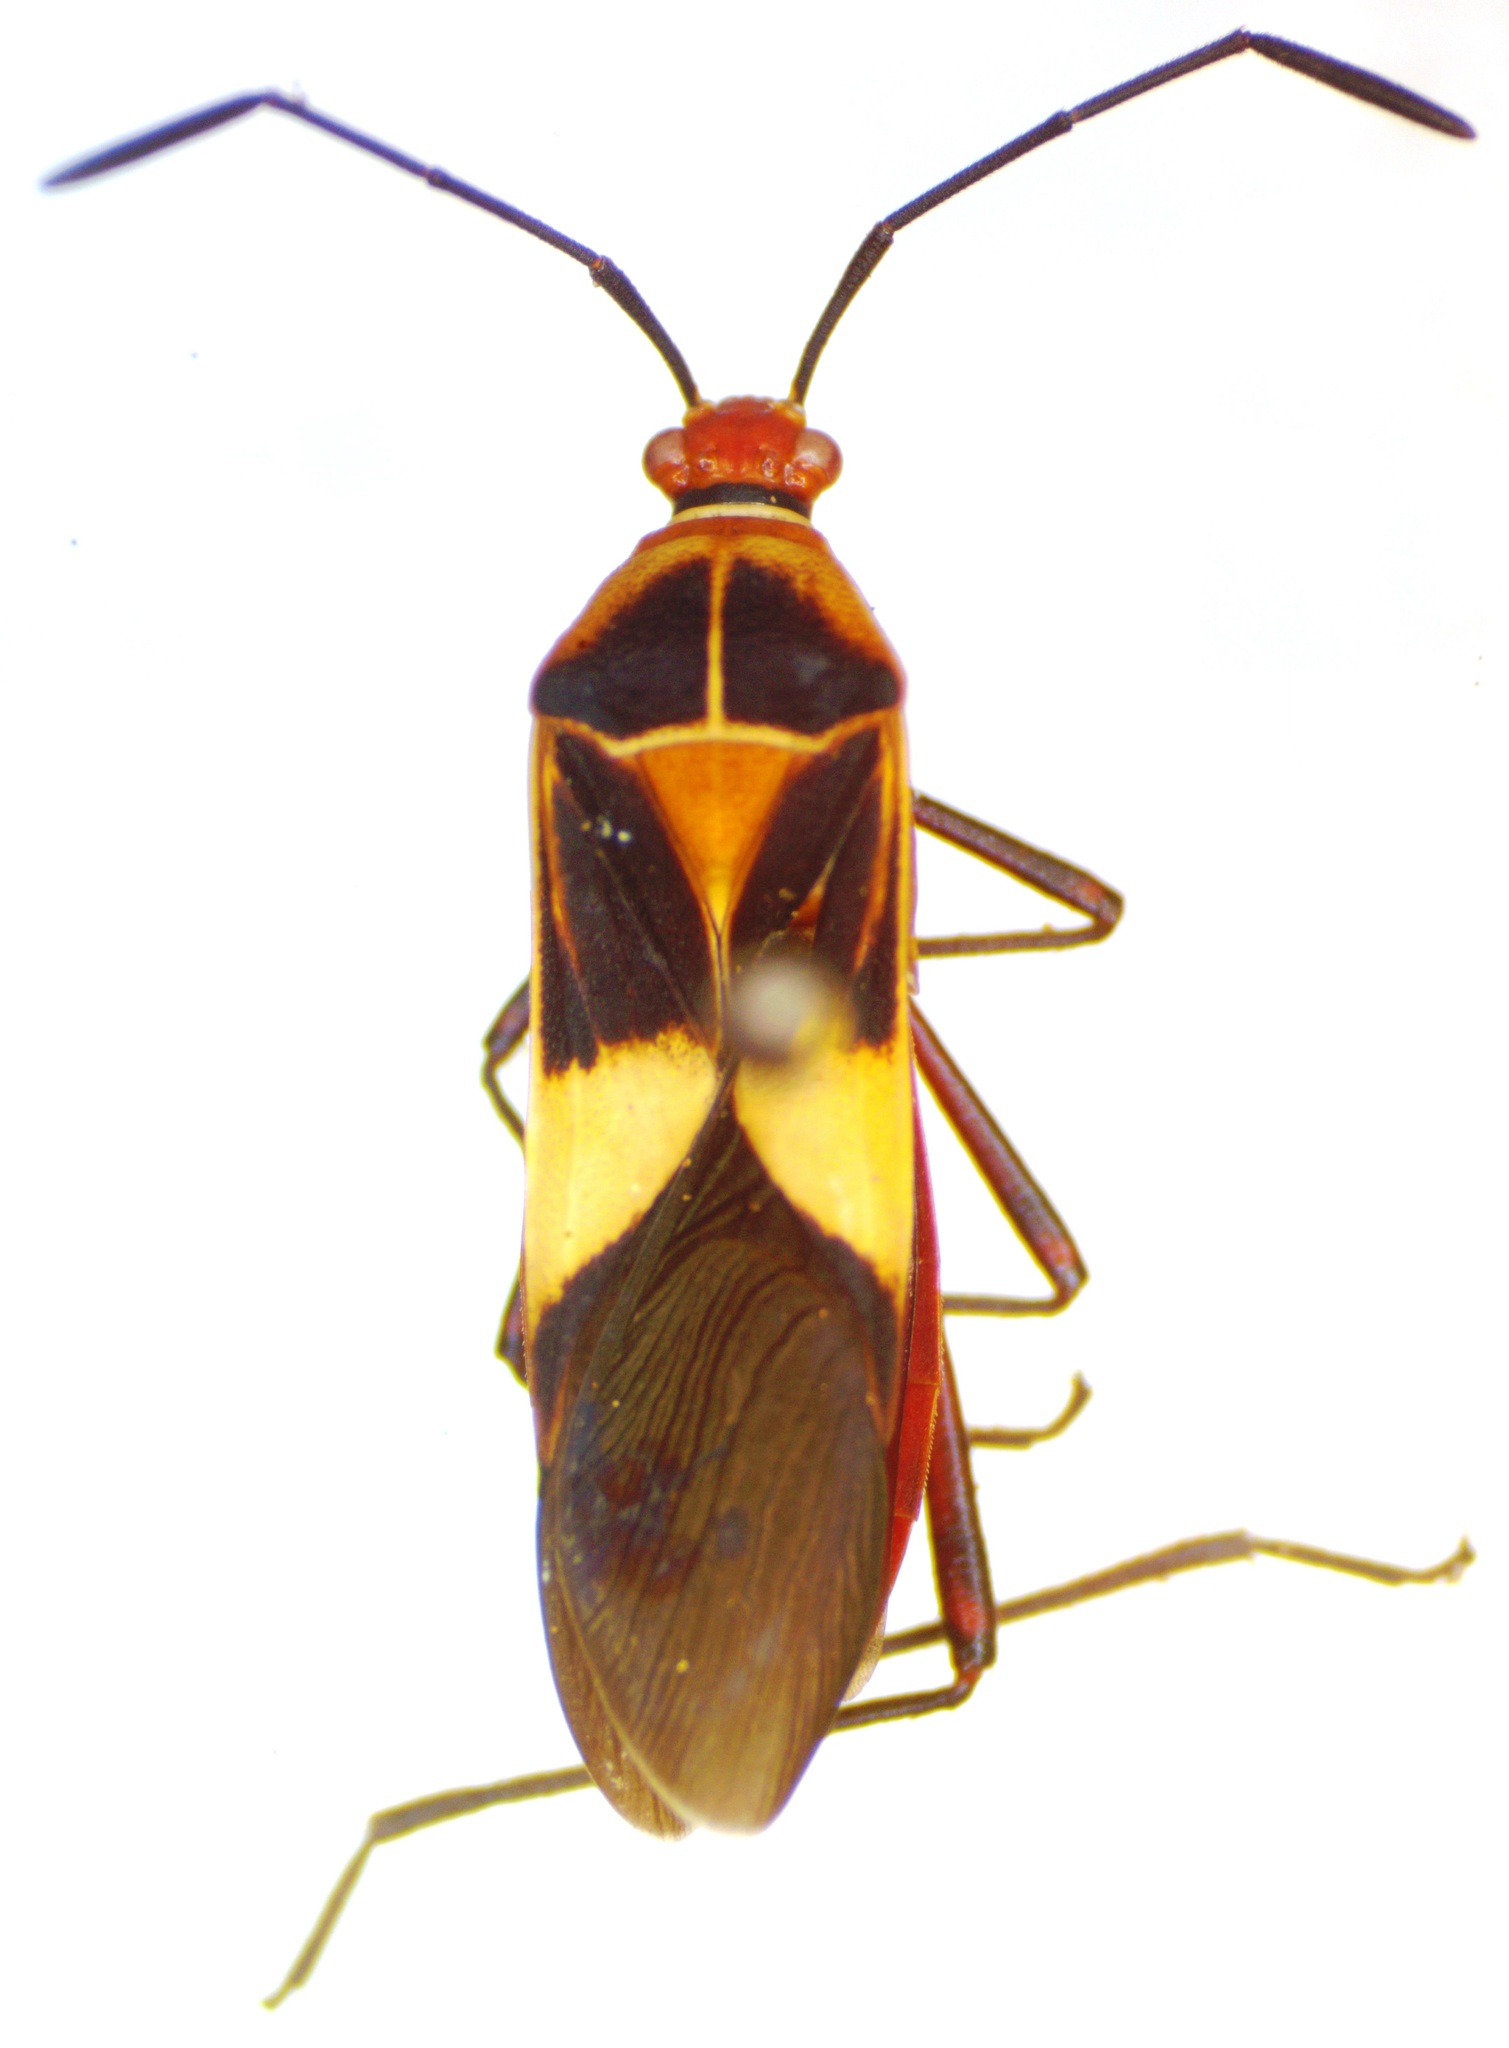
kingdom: Animalia
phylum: Arthropoda
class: Insecta
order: Hemiptera
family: Coreidae
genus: Hypselonotus
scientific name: Hypselonotus interruptus
